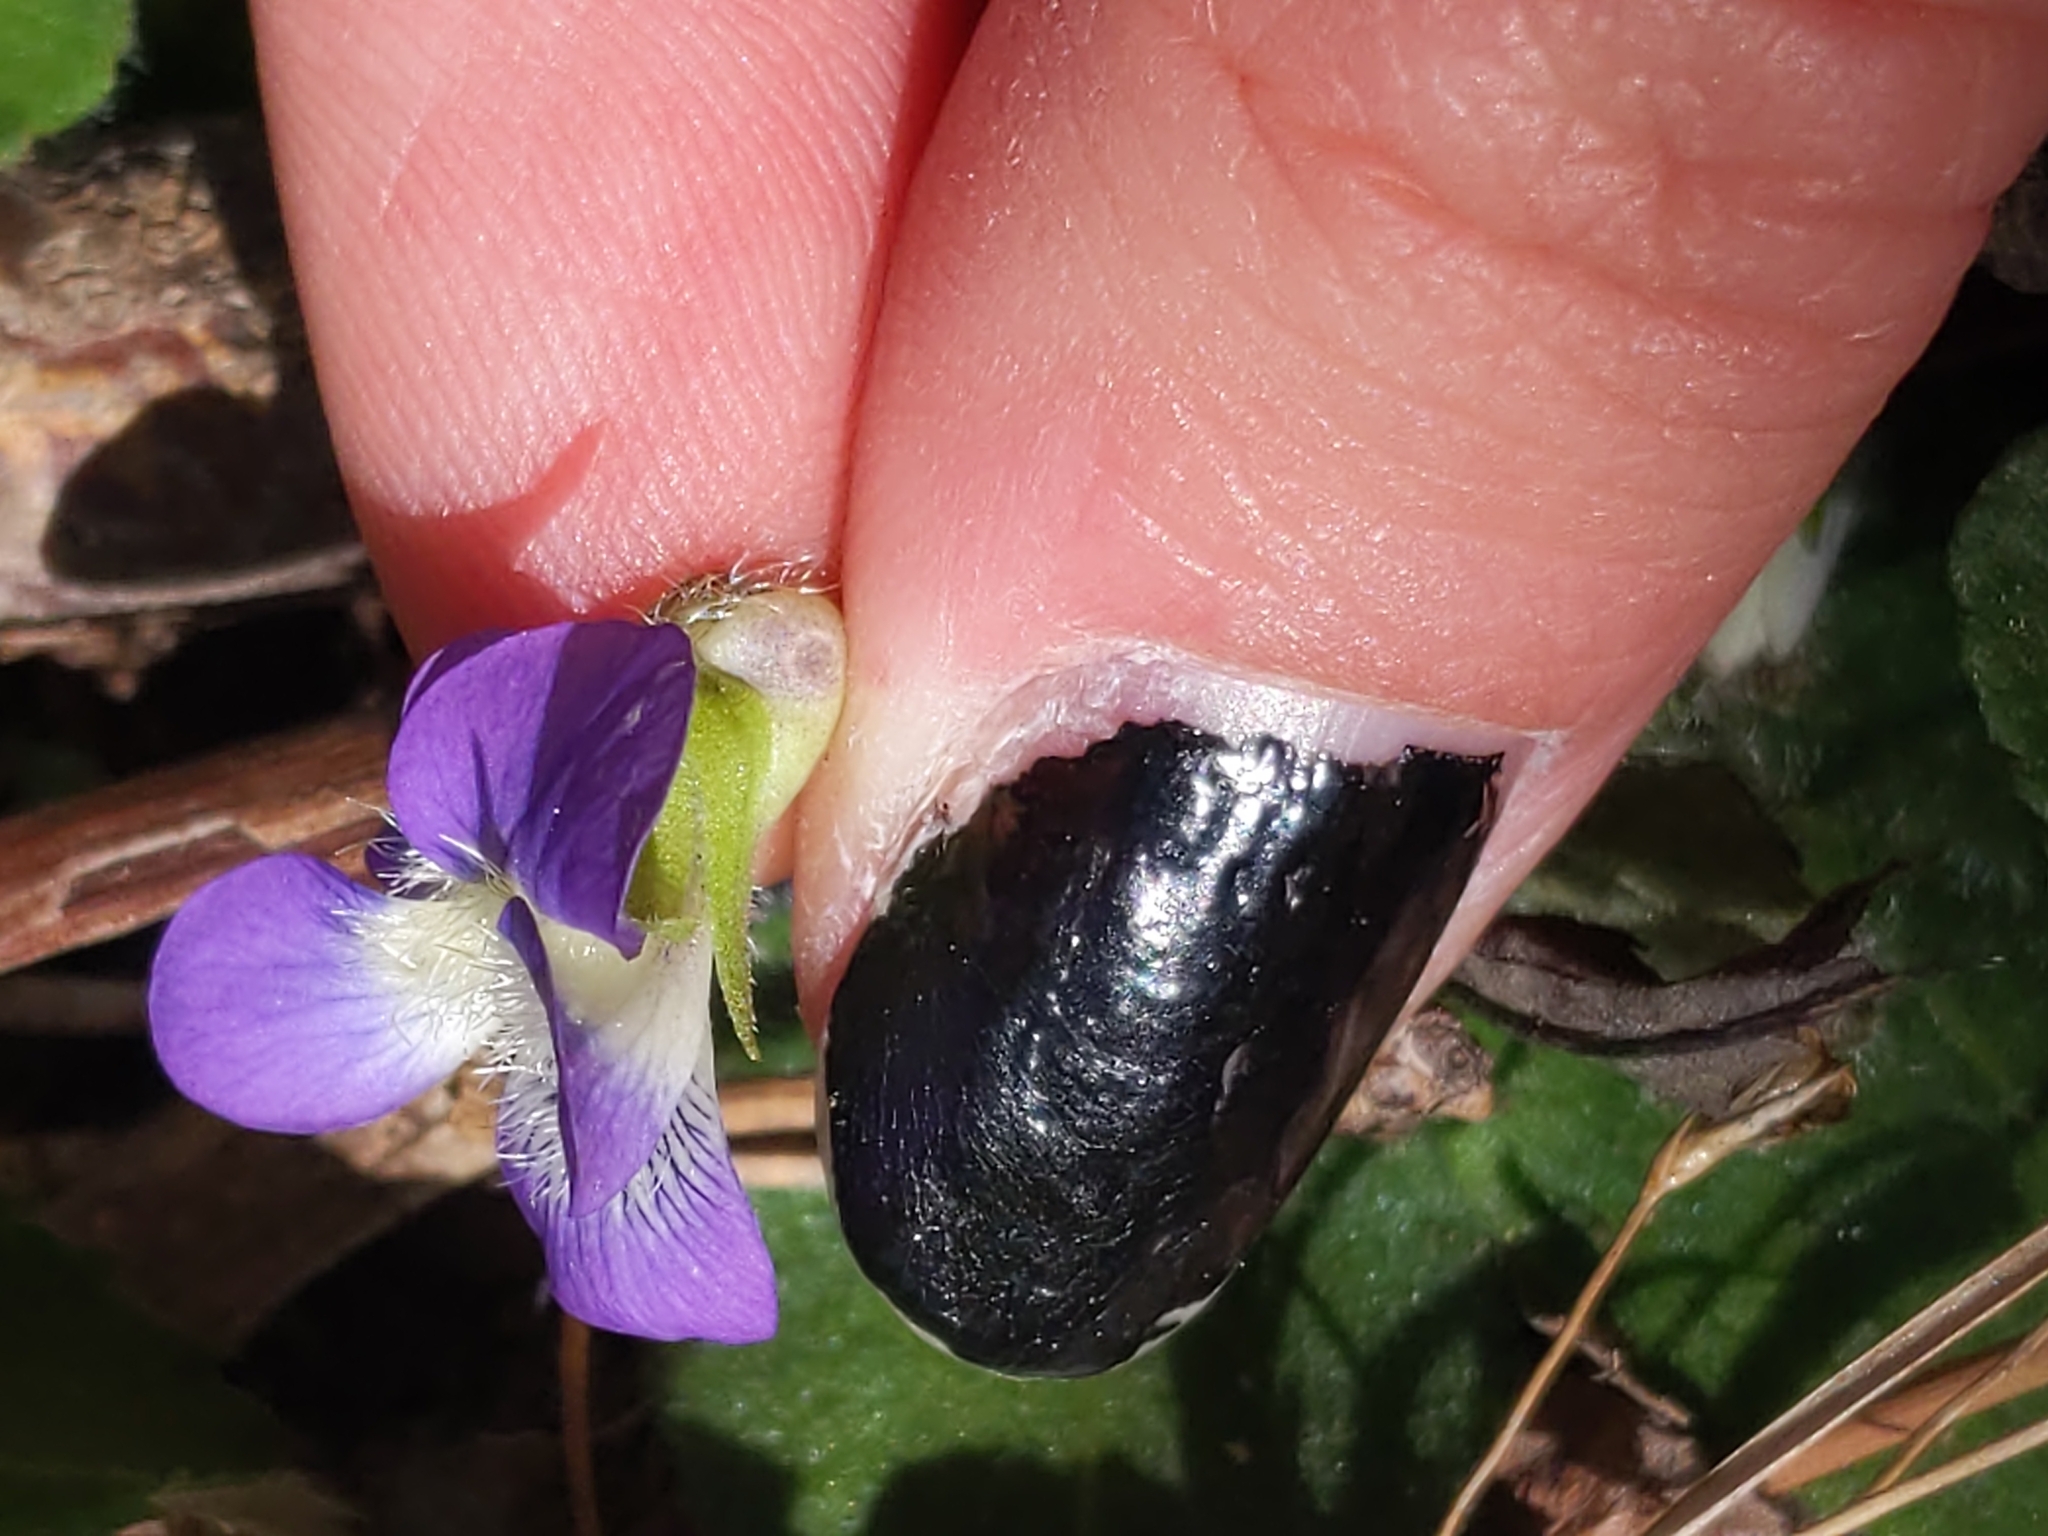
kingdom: Plantae
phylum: Tracheophyta
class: Magnoliopsida
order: Malpighiales
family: Violaceae
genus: Viola
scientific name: Viola fimbriatula
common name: Sand violet
